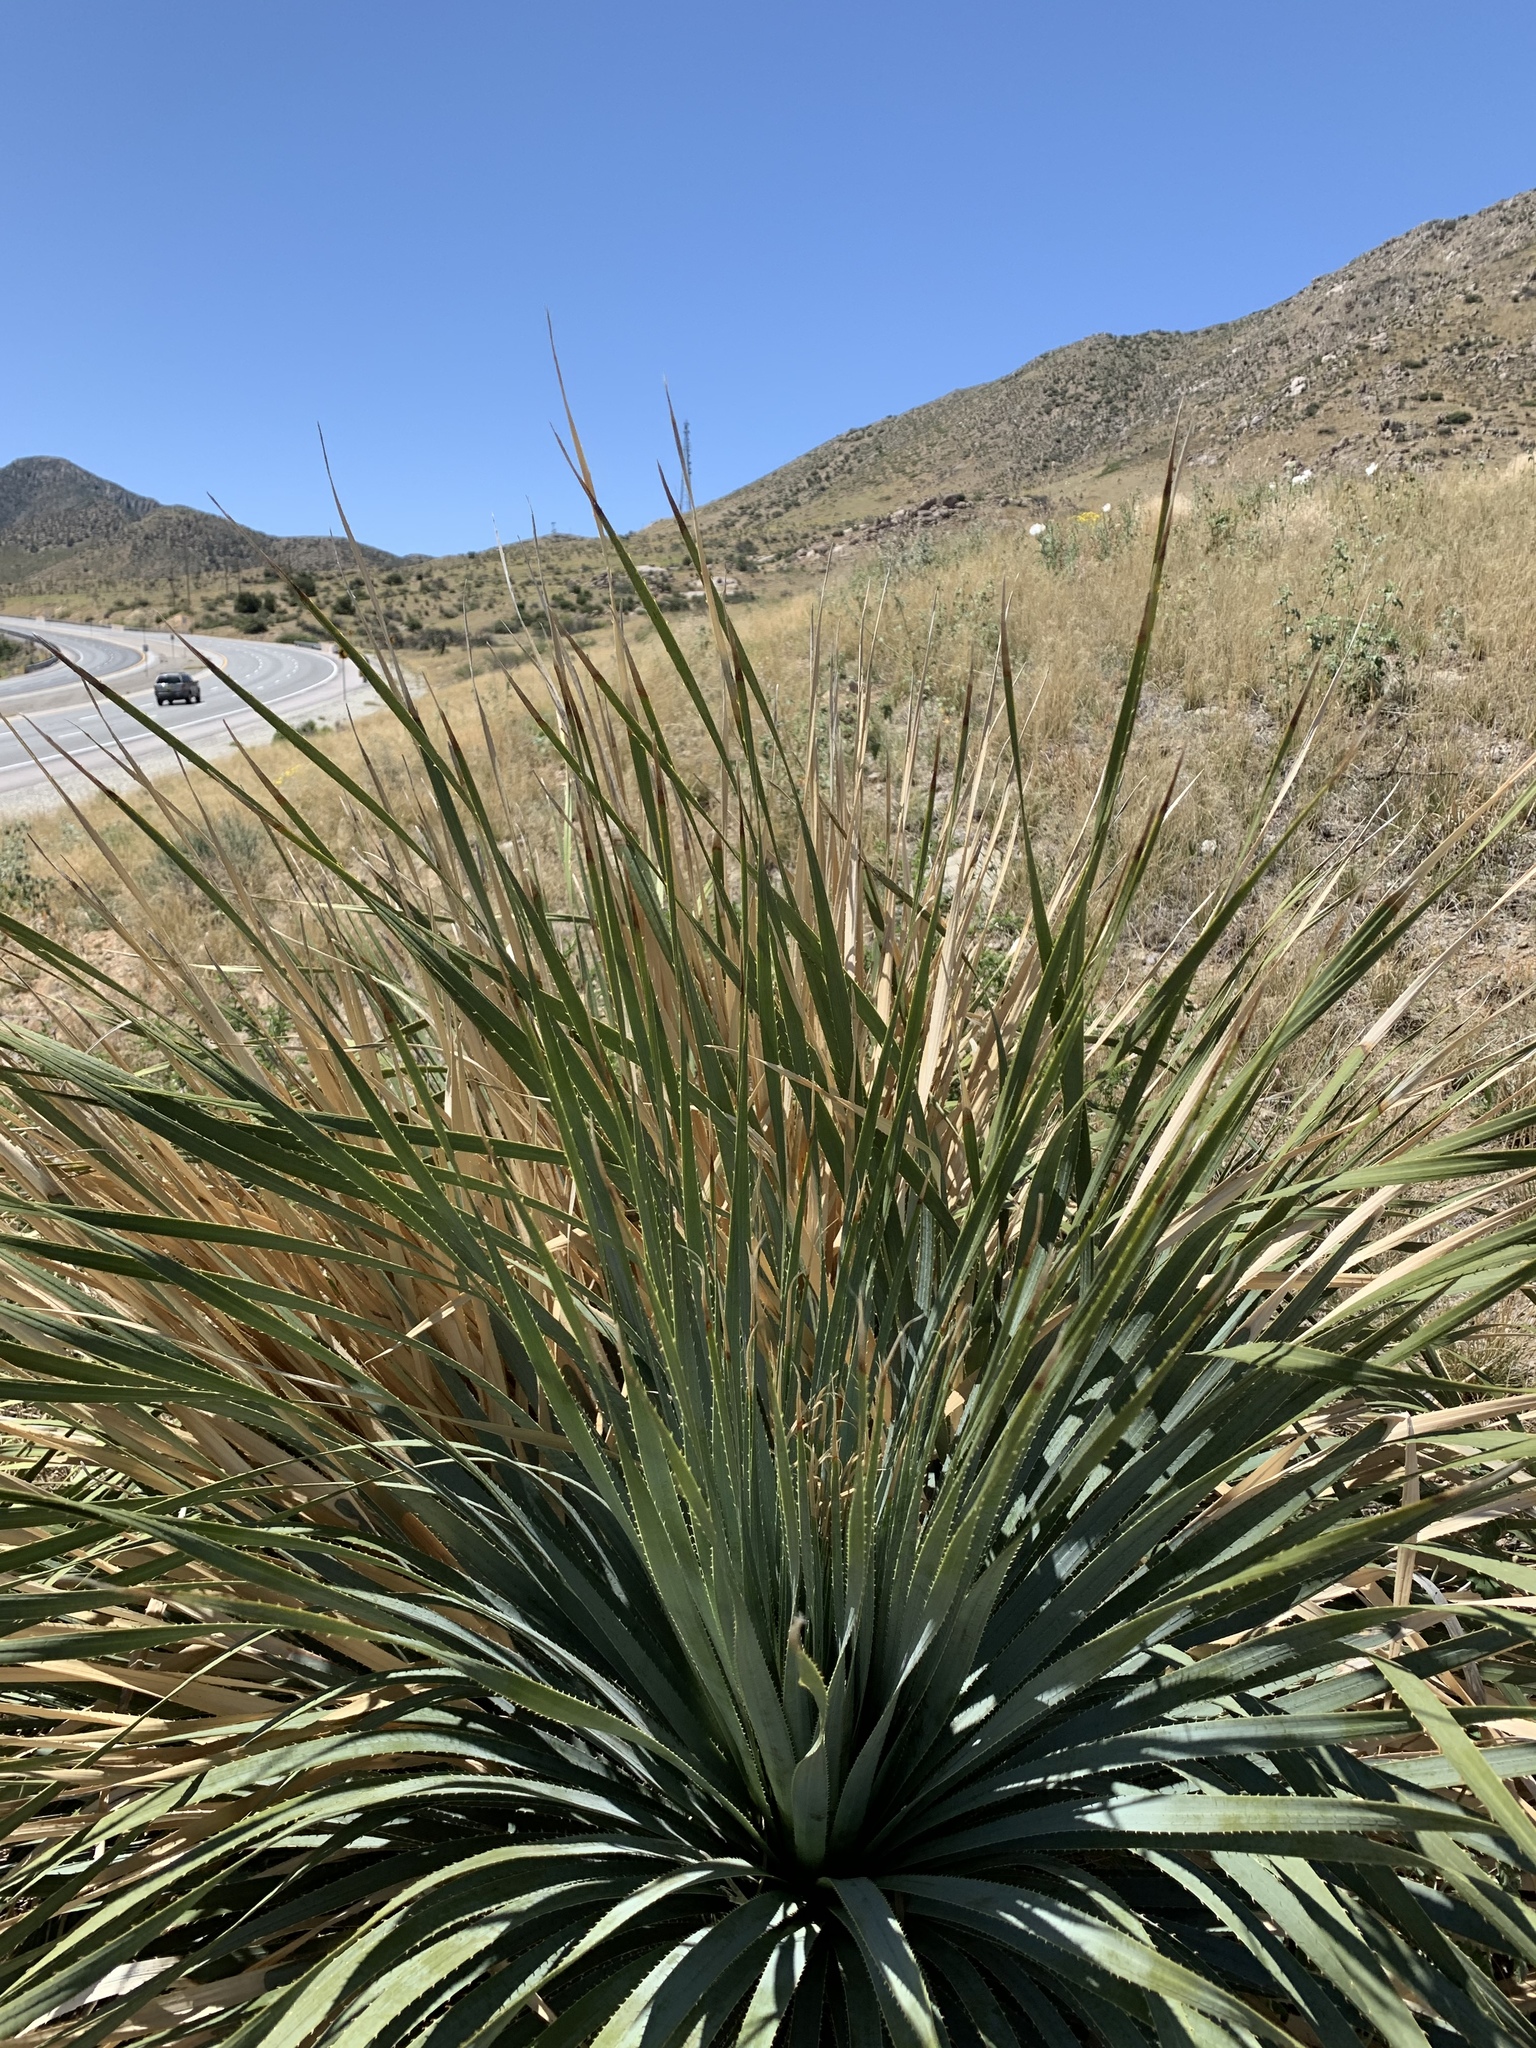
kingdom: Plantae
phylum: Tracheophyta
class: Liliopsida
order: Asparagales
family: Asparagaceae
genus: Dasylirion
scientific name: Dasylirion wheeleri
